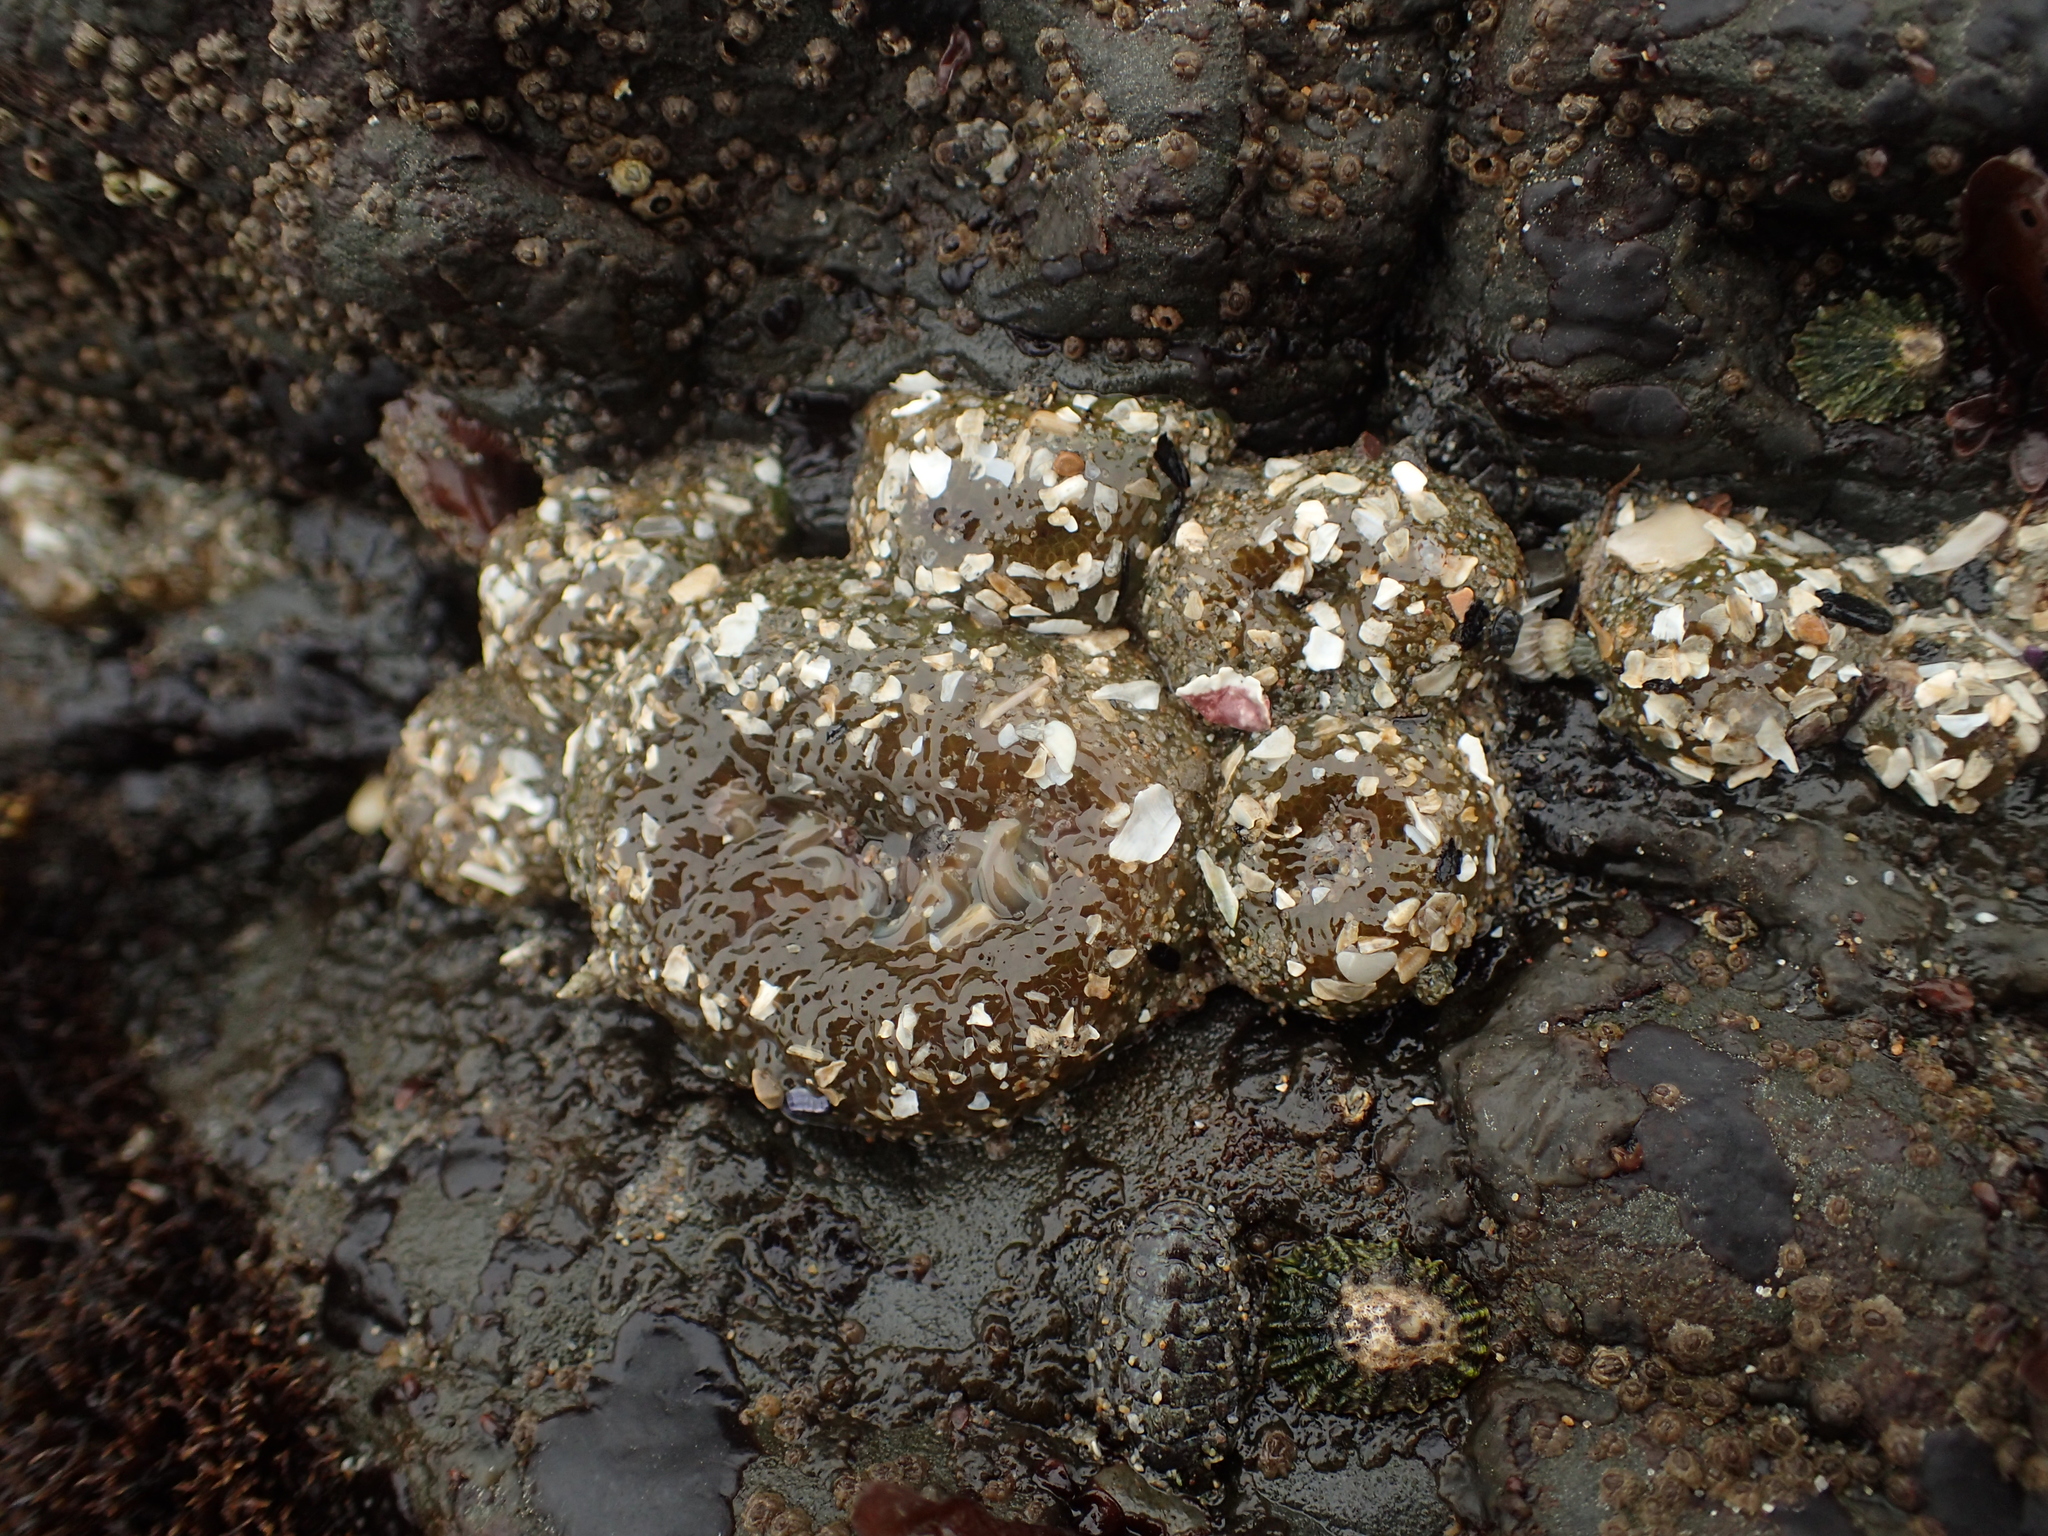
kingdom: Animalia
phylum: Cnidaria
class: Anthozoa
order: Actiniaria
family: Actiniidae
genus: Anthopleura
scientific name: Anthopleura elegantissima
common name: Clonal anemone
